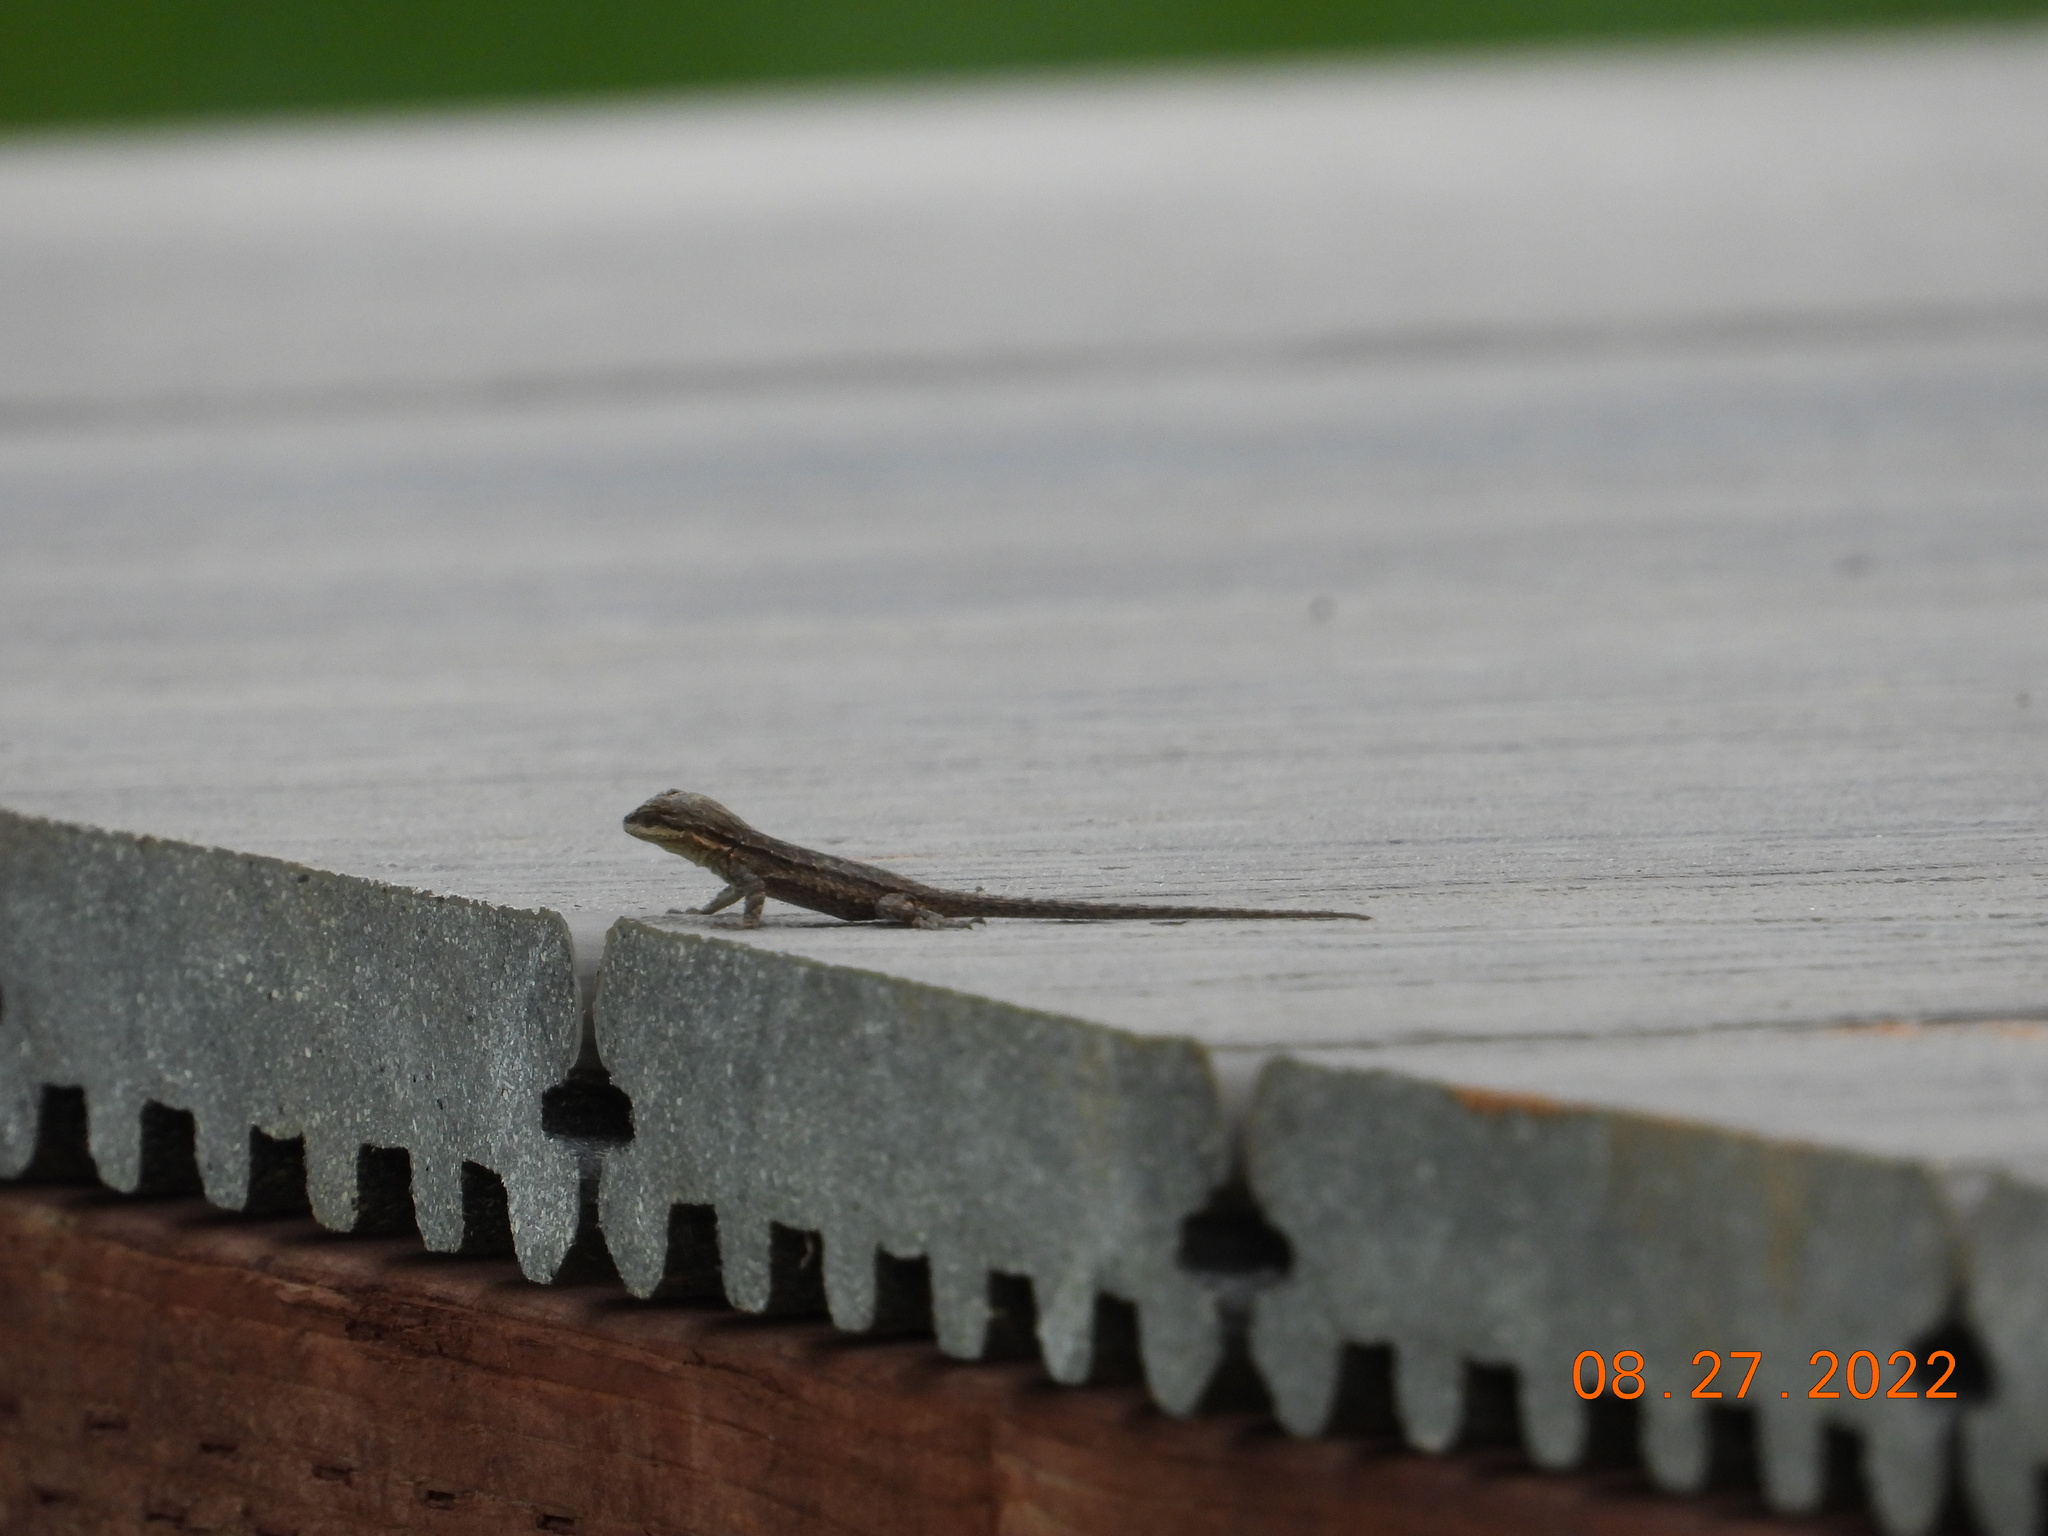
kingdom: Animalia
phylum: Chordata
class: Squamata
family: Phrynosomatidae
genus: Urosaurus
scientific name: Urosaurus ornatus
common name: Ornate tree lizard
